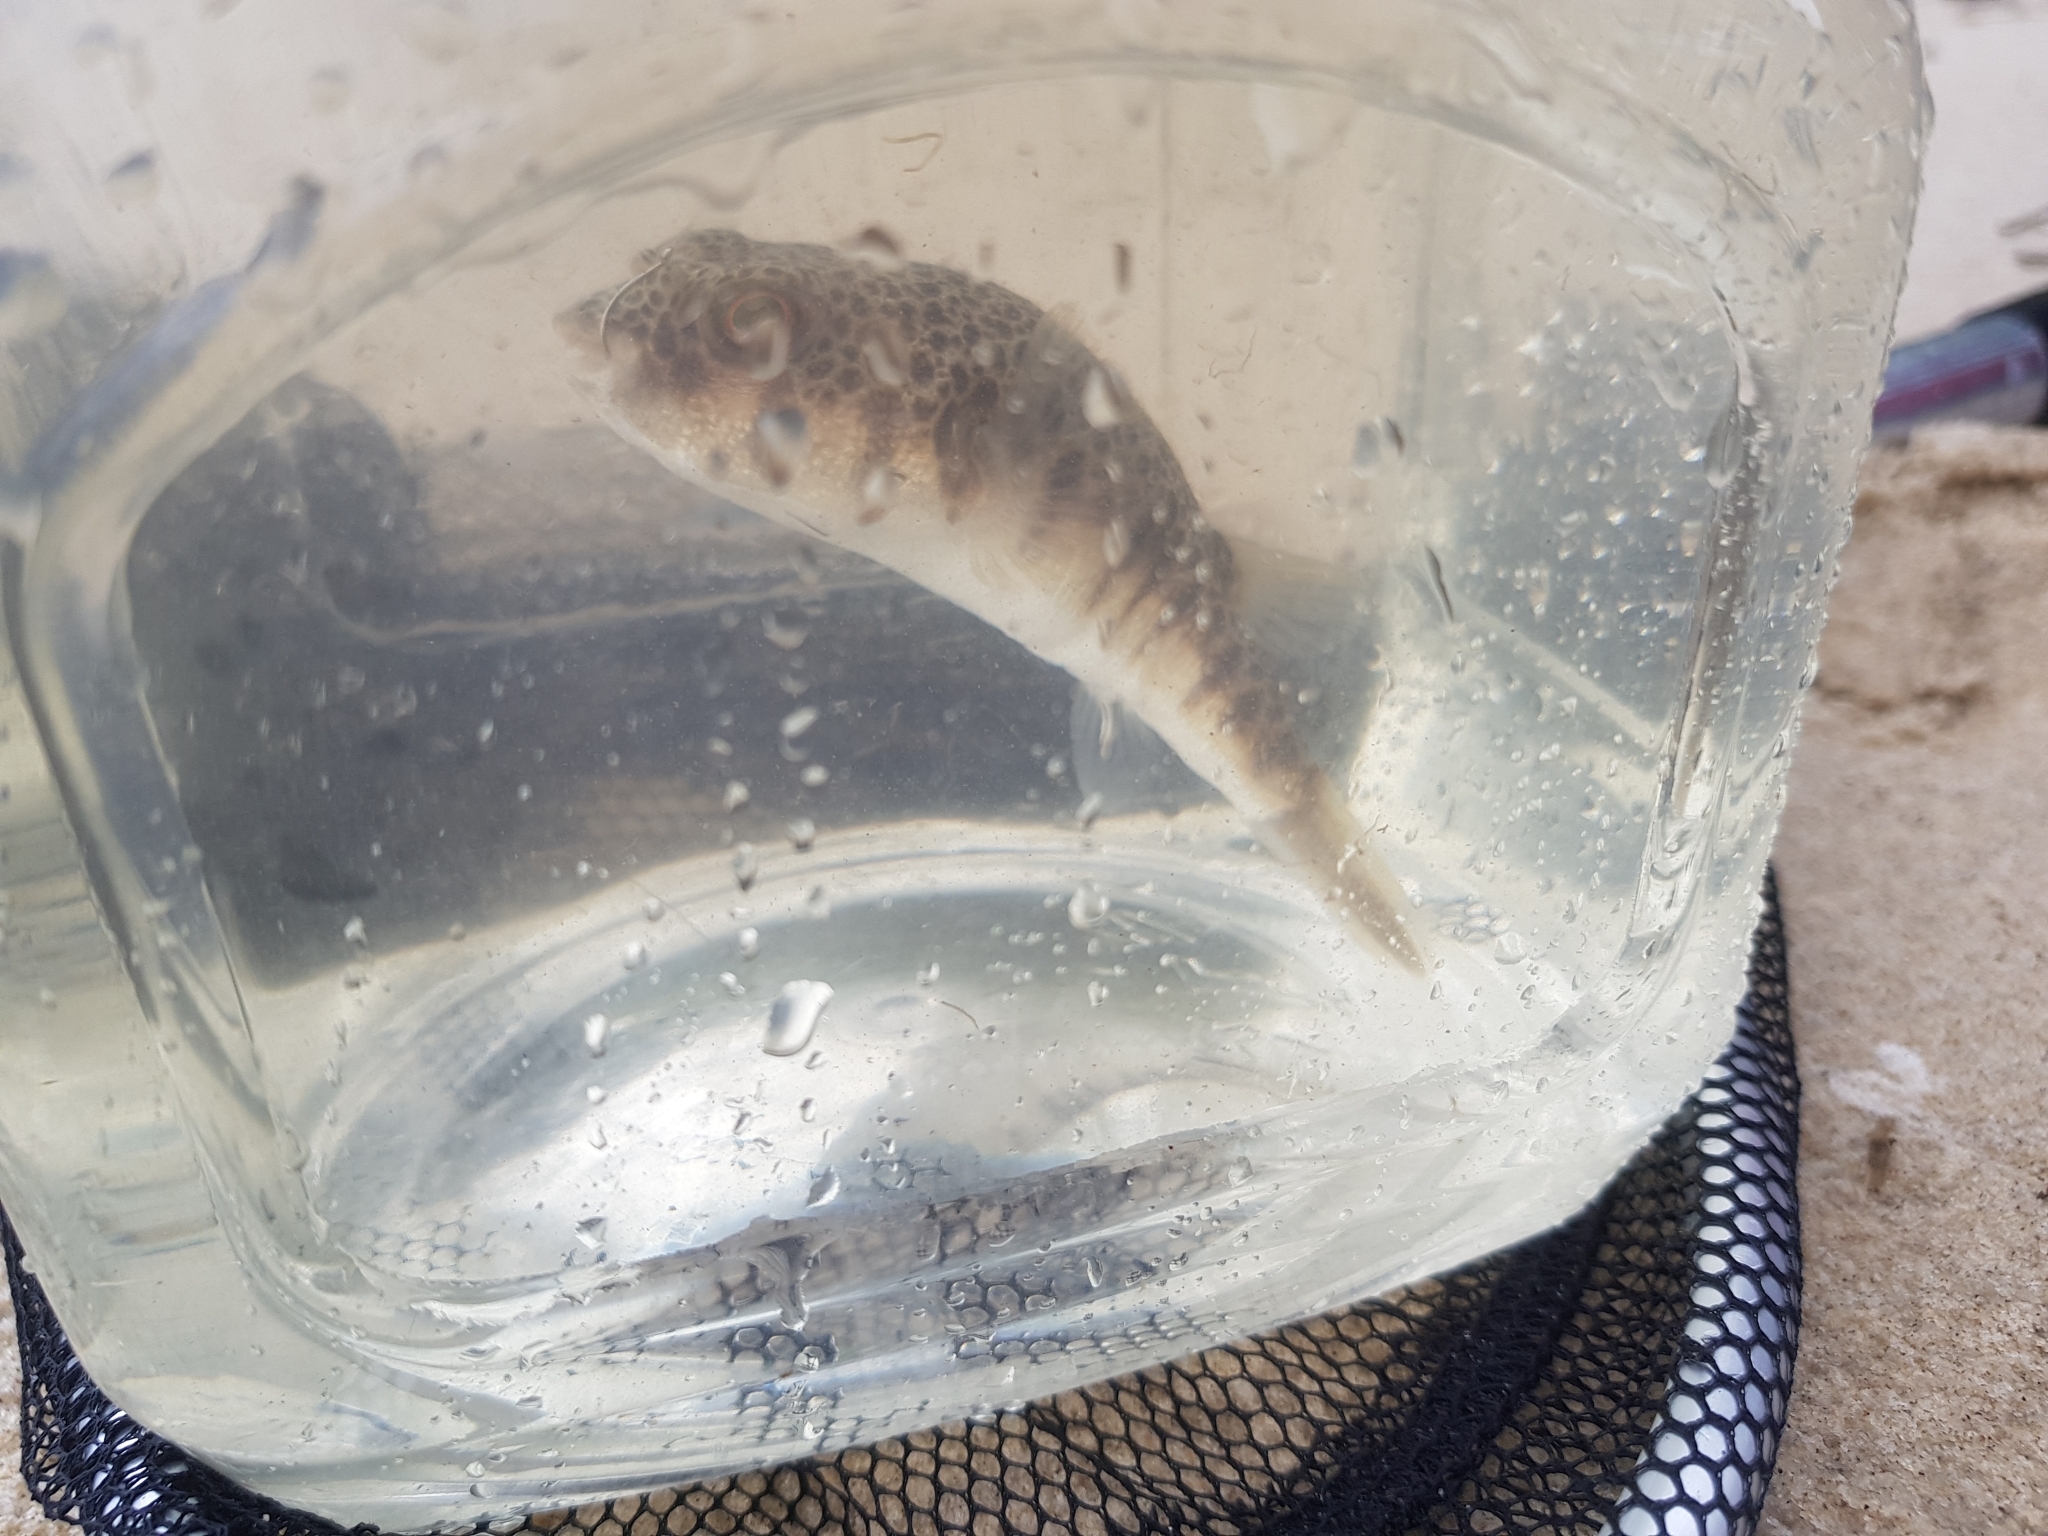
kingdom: Animalia
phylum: Chordata
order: Tetraodontiformes
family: Tetraodontidae
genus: Tetractenos
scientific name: Tetractenos hamiltoni
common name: Common toadfish
